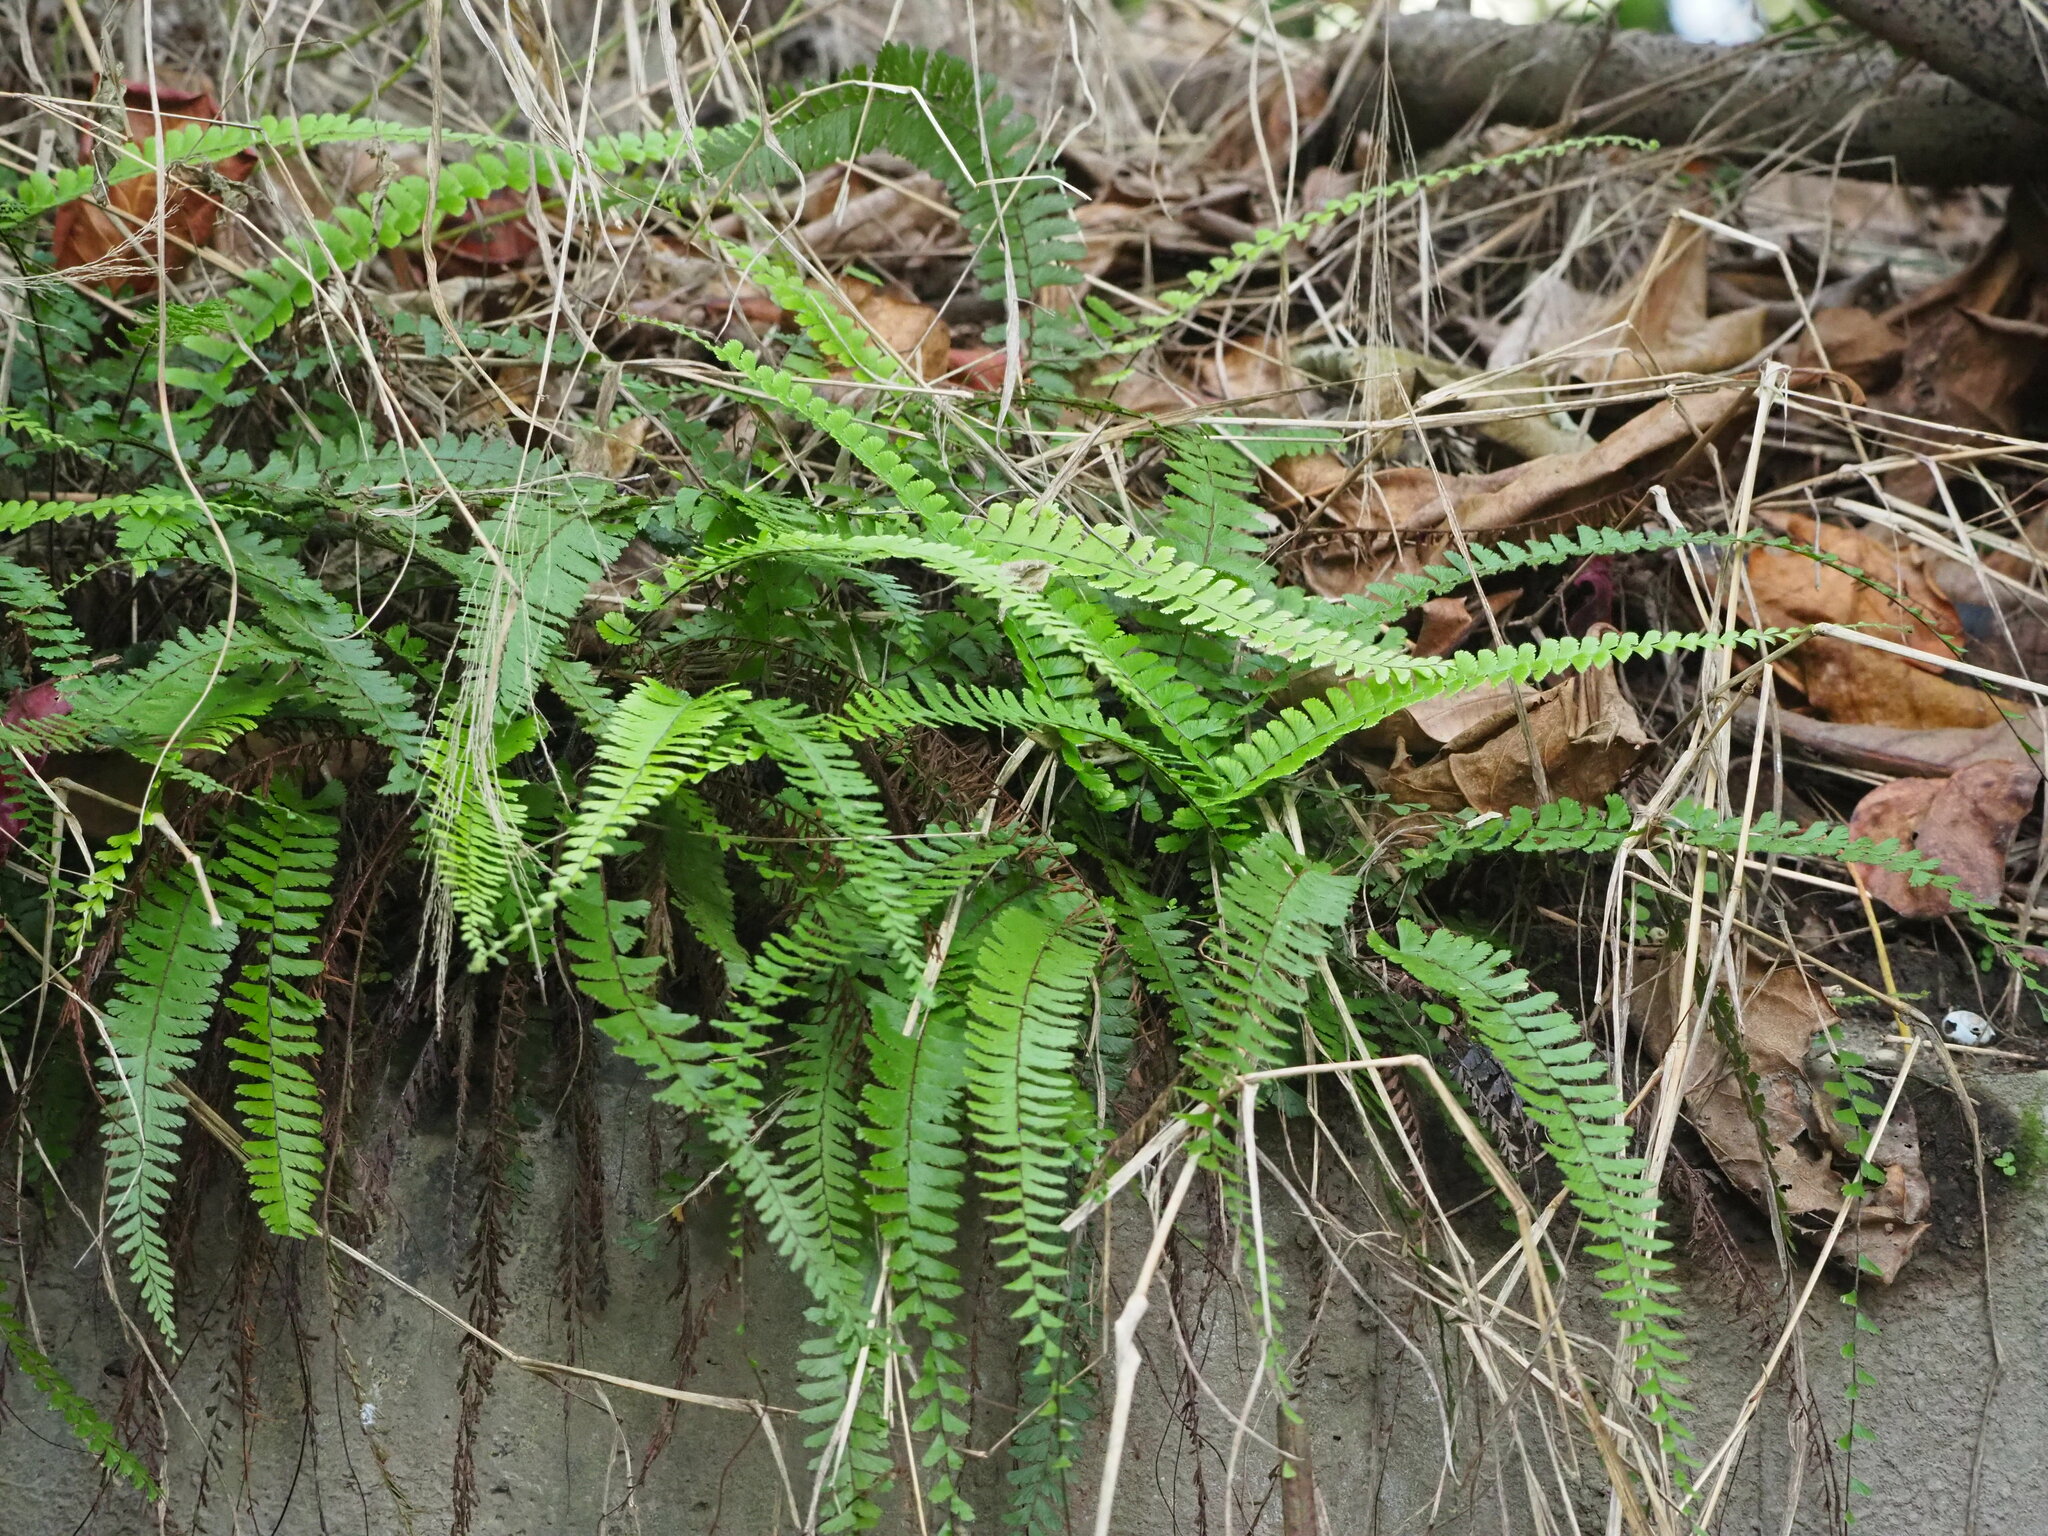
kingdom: Plantae
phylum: Tracheophyta
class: Polypodiopsida
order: Polypodiales
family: Pteridaceae
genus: Adiantum
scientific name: Adiantum caudatum
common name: Tailed maidenhair
